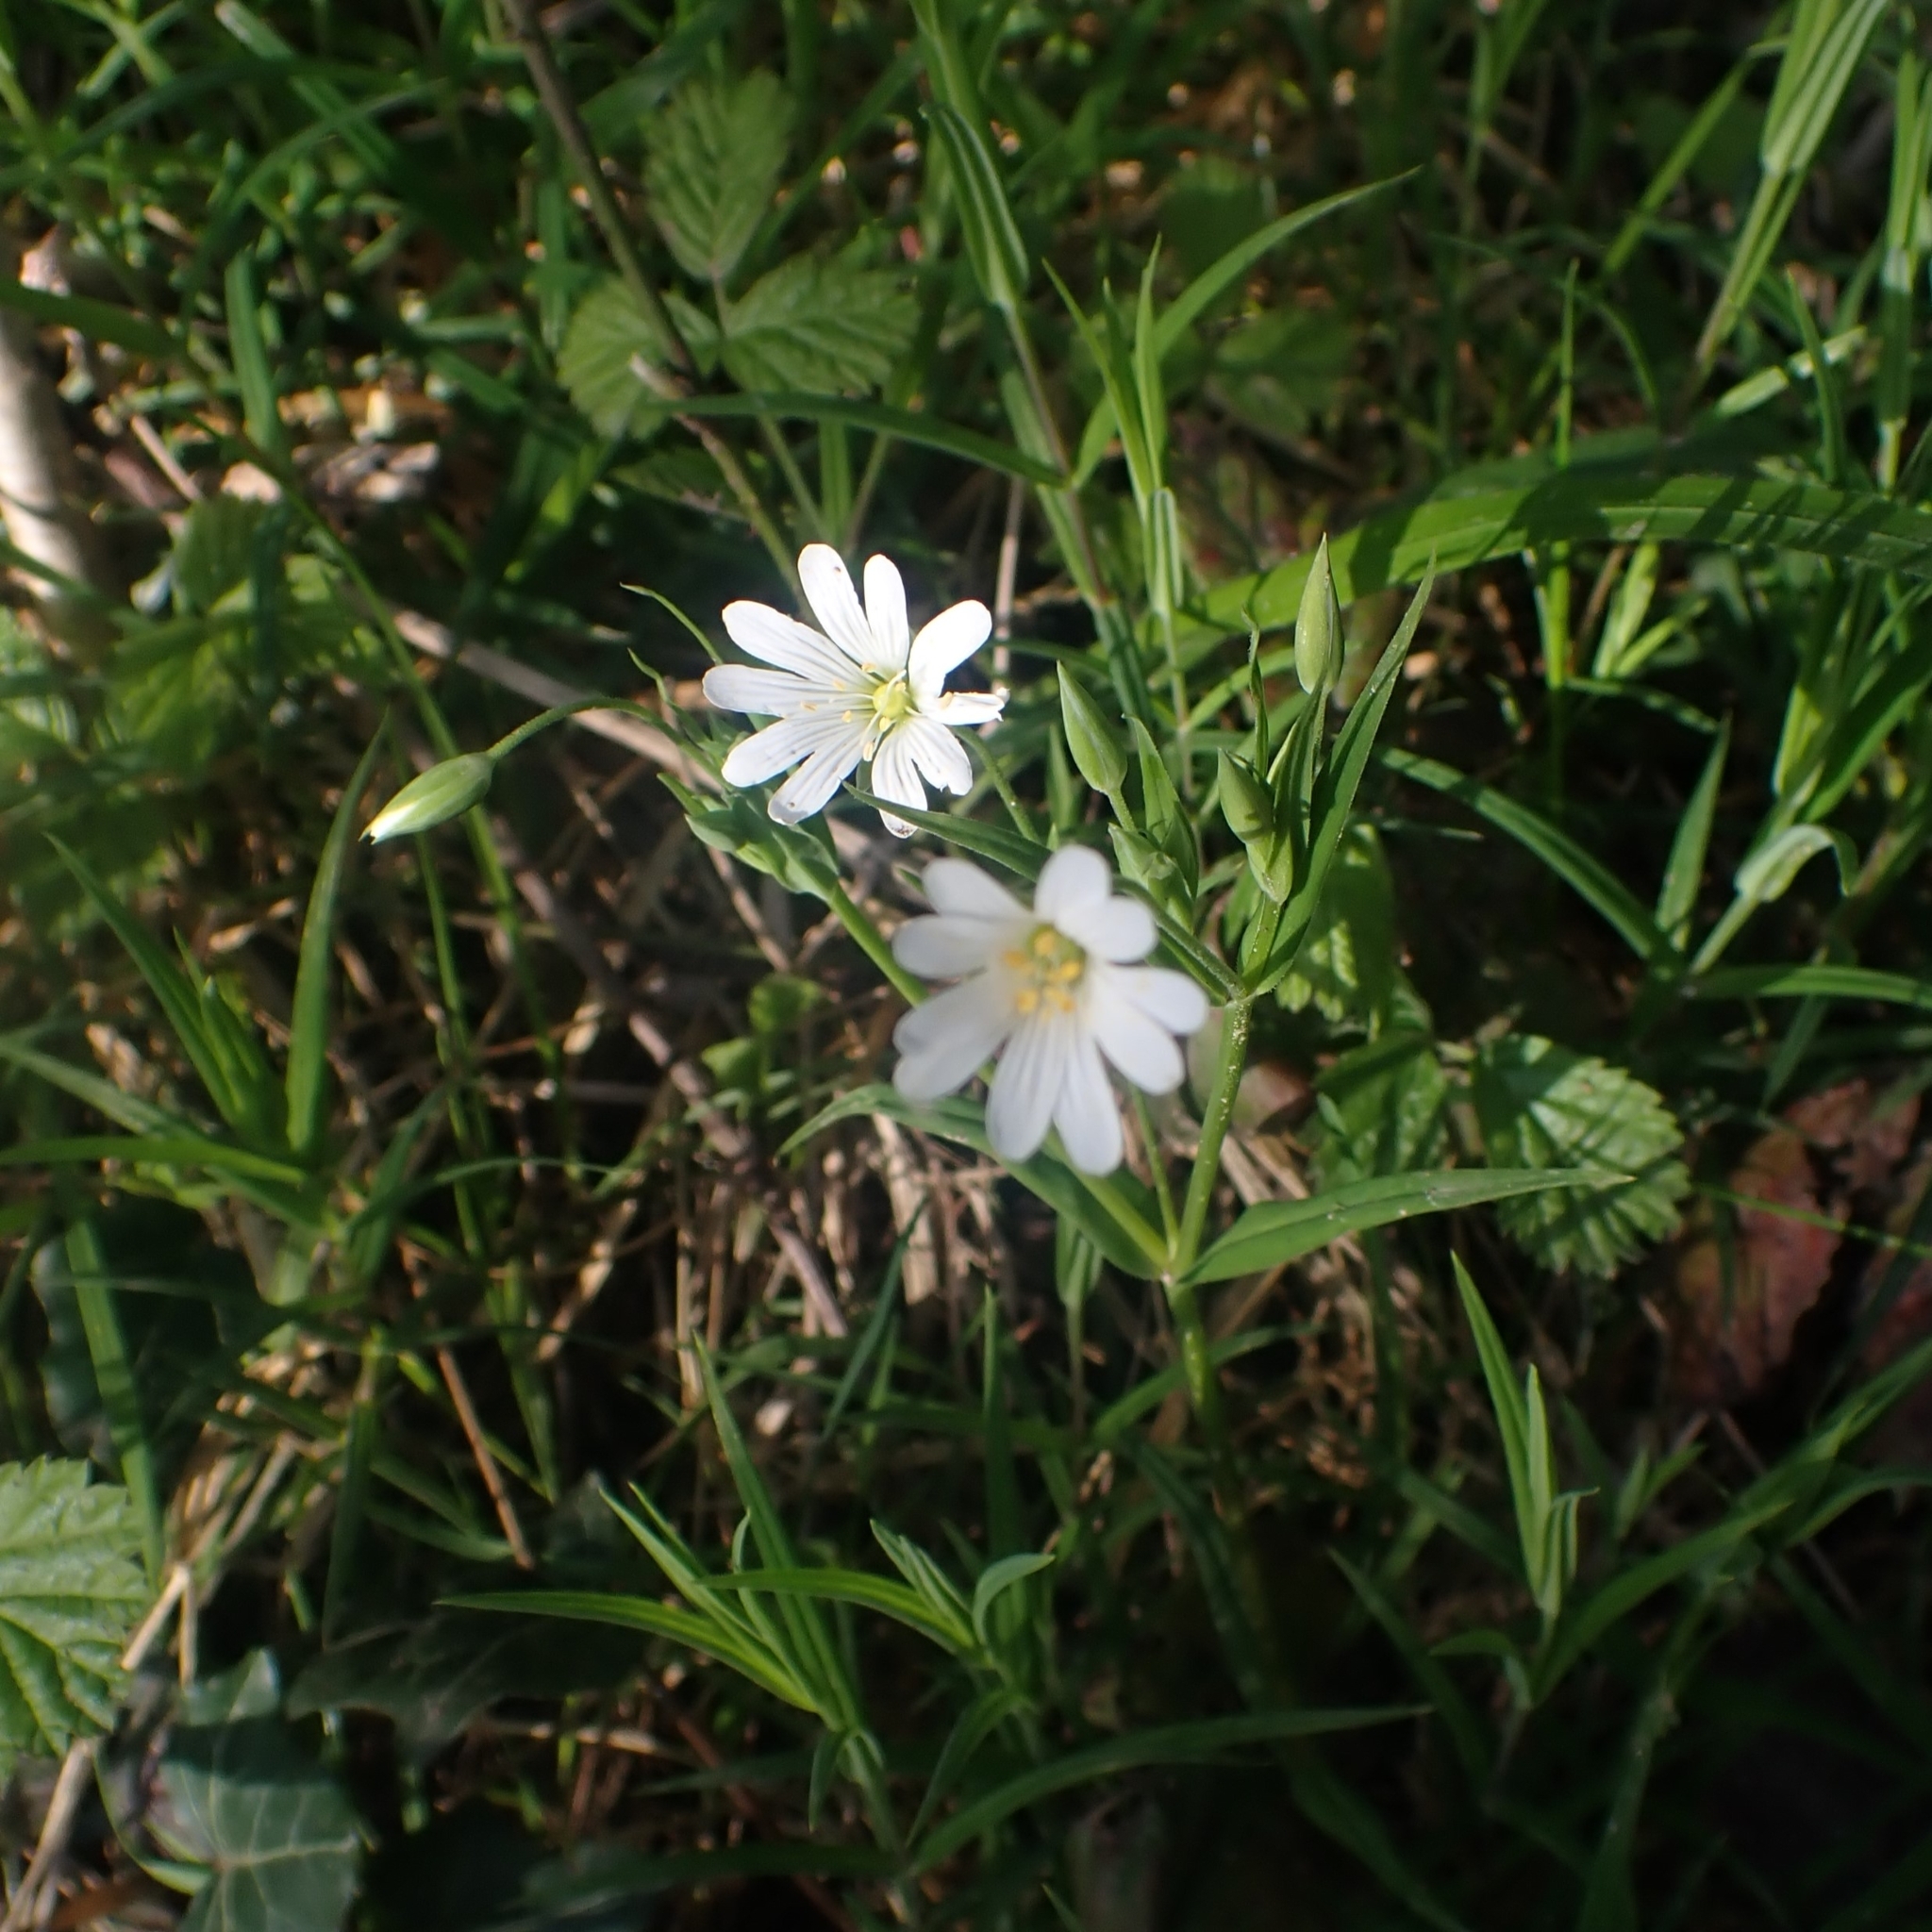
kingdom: Plantae
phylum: Tracheophyta
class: Magnoliopsida
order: Caryophyllales
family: Caryophyllaceae
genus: Rabelera
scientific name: Rabelera holostea
